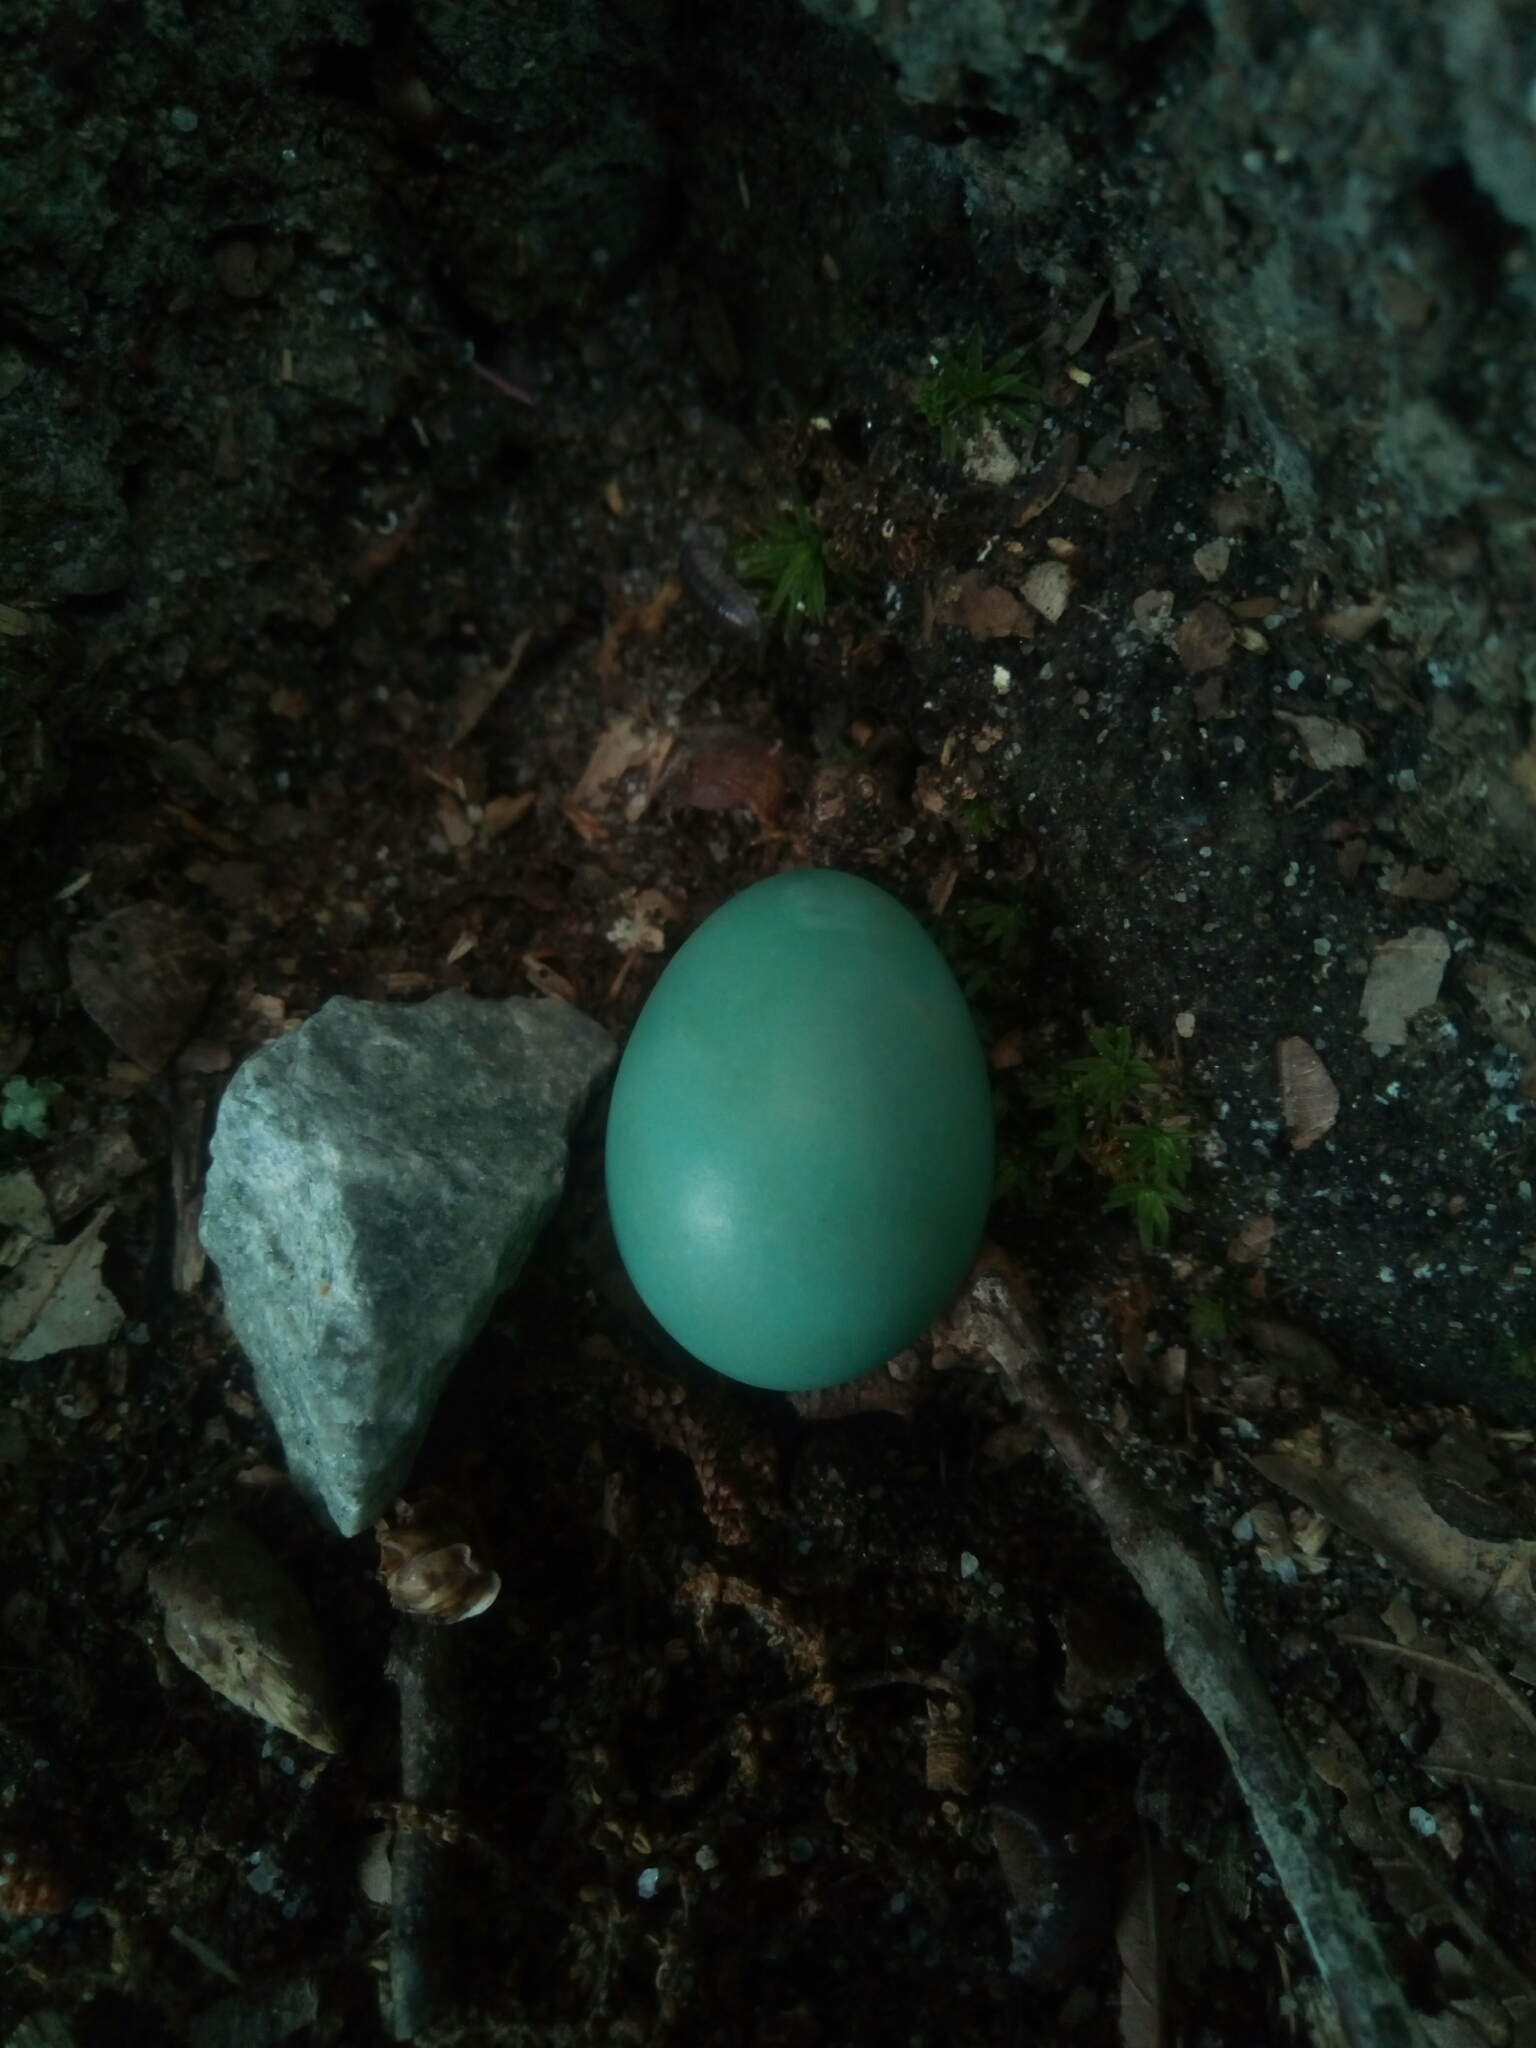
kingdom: Animalia
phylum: Chordata
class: Aves
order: Passeriformes
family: Turdidae
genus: Turdus
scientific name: Turdus migratorius
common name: American robin
